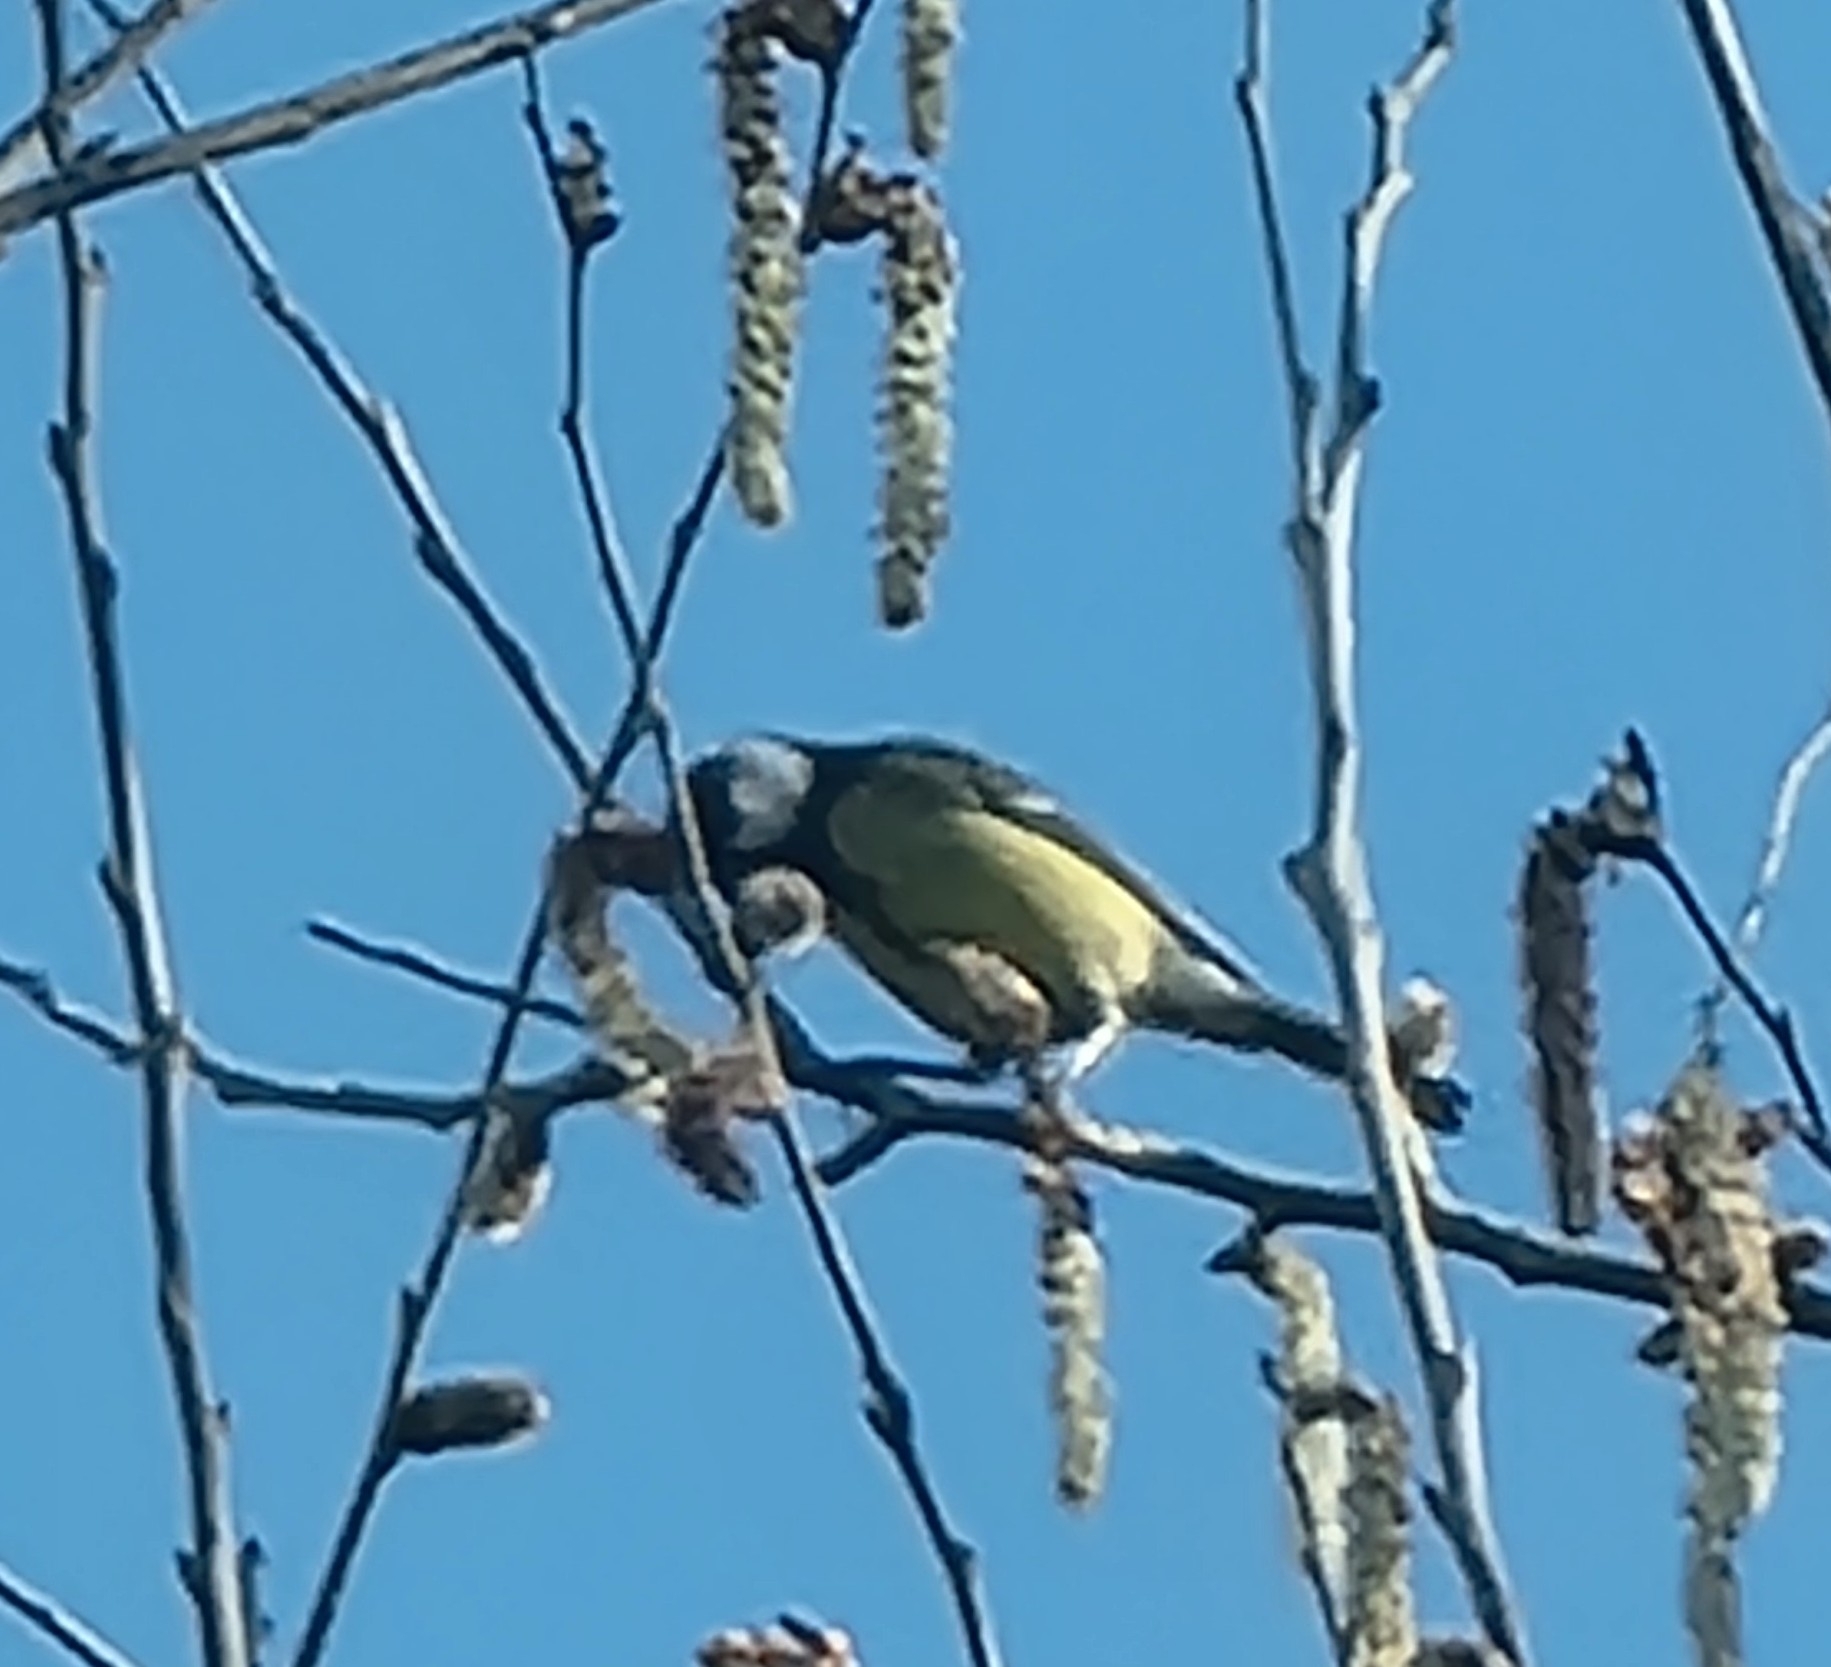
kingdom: Animalia
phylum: Chordata
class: Aves
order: Passeriformes
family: Paridae
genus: Parus
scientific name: Parus major
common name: Great tit
